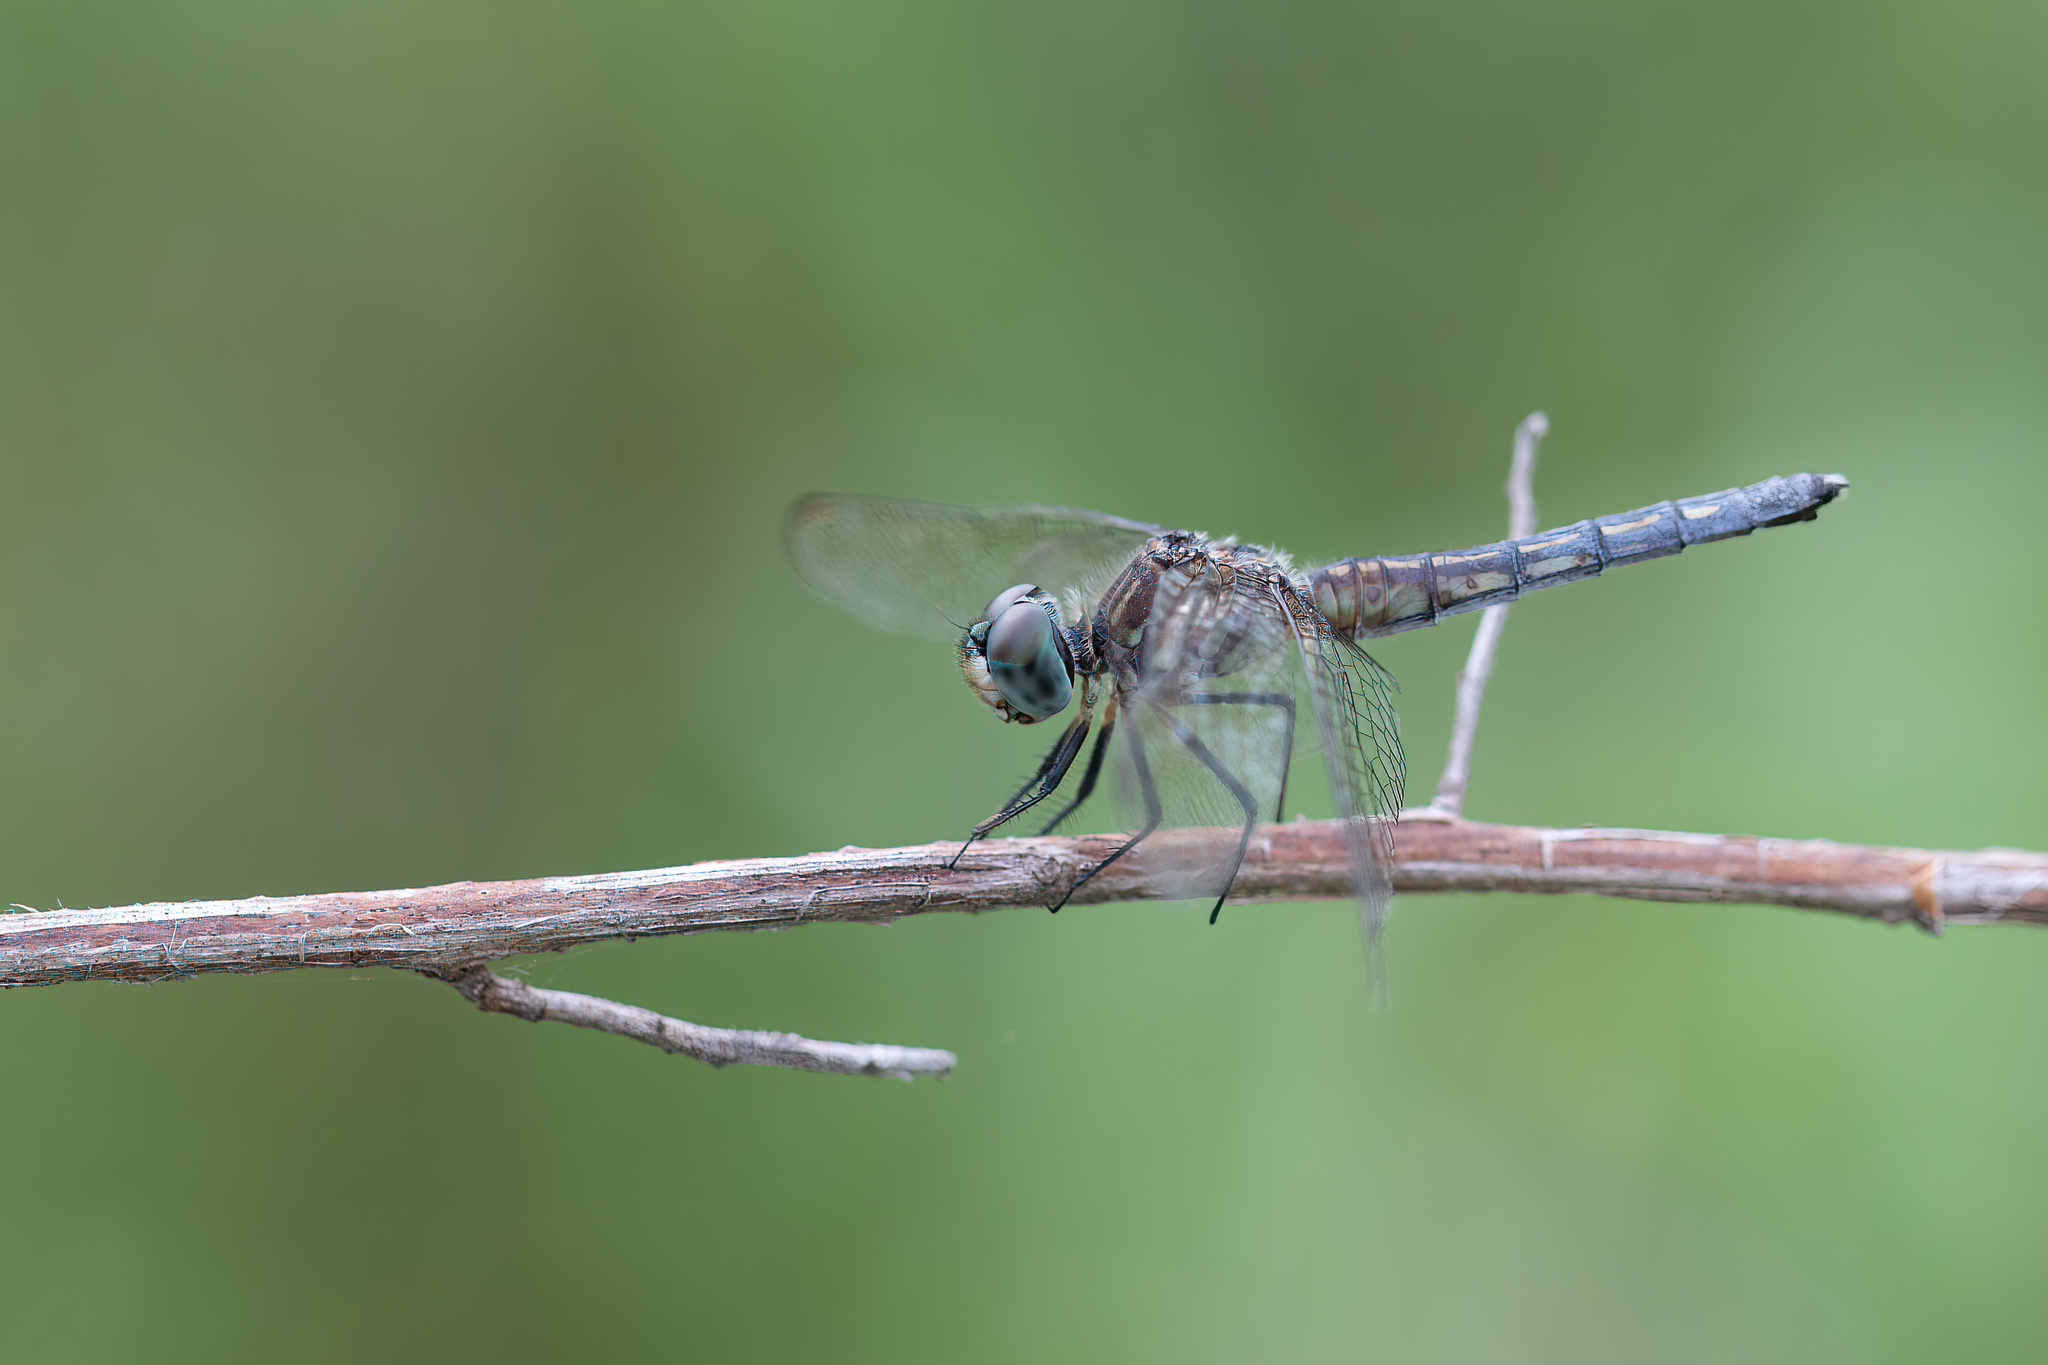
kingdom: Animalia
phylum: Arthropoda
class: Insecta
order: Odonata
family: Libellulidae
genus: Pachydiplax
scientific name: Pachydiplax longipennis
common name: Blue dasher
